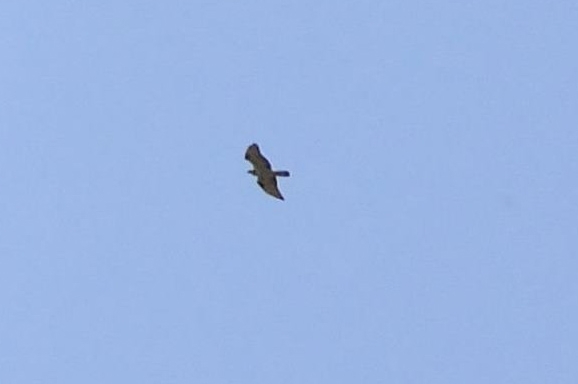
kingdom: Animalia
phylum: Chordata
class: Aves
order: Accipitriformes
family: Accipitridae
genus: Pernis
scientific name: Pernis apivorus
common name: European honey buzzard
